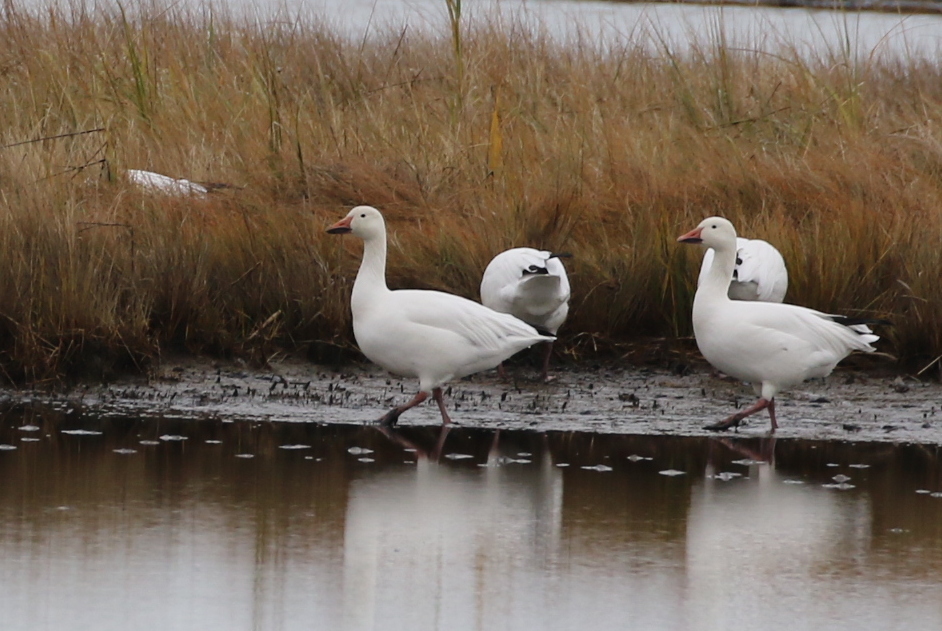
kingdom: Animalia
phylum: Chordata
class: Aves
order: Anseriformes
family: Anatidae
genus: Anser
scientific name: Anser caerulescens
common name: Snow goose
